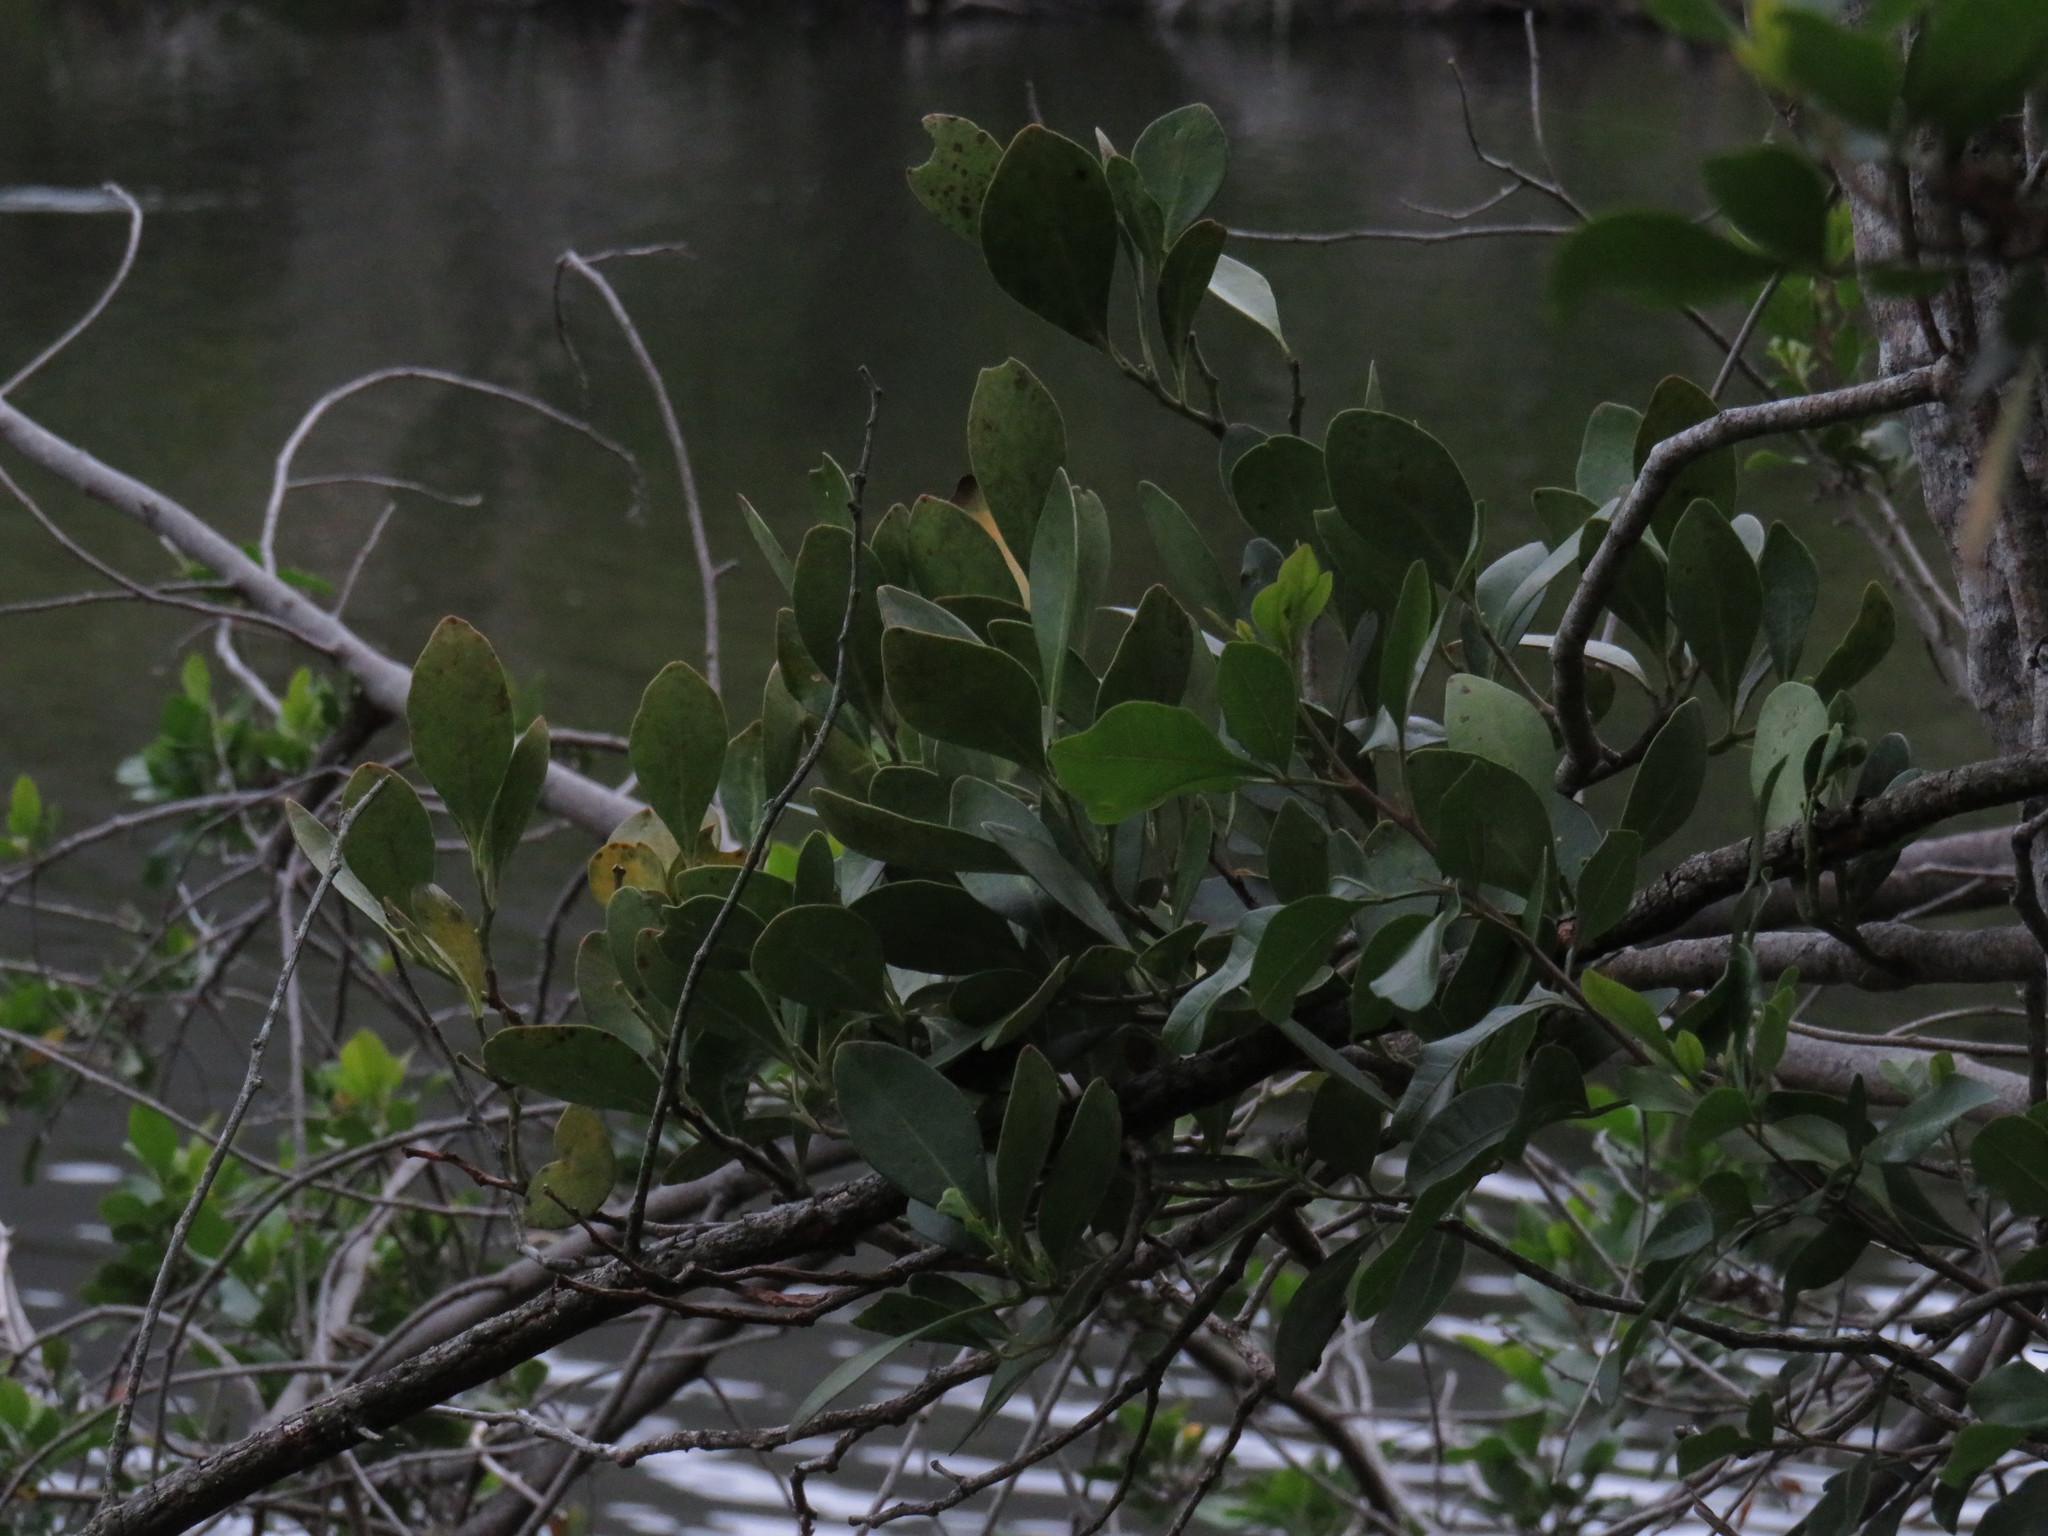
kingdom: Plantae
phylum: Tracheophyta
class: Magnoliopsida
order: Celastrales
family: Celastraceae
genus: Pterocelastrus
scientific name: Pterocelastrus tricuspidatus
